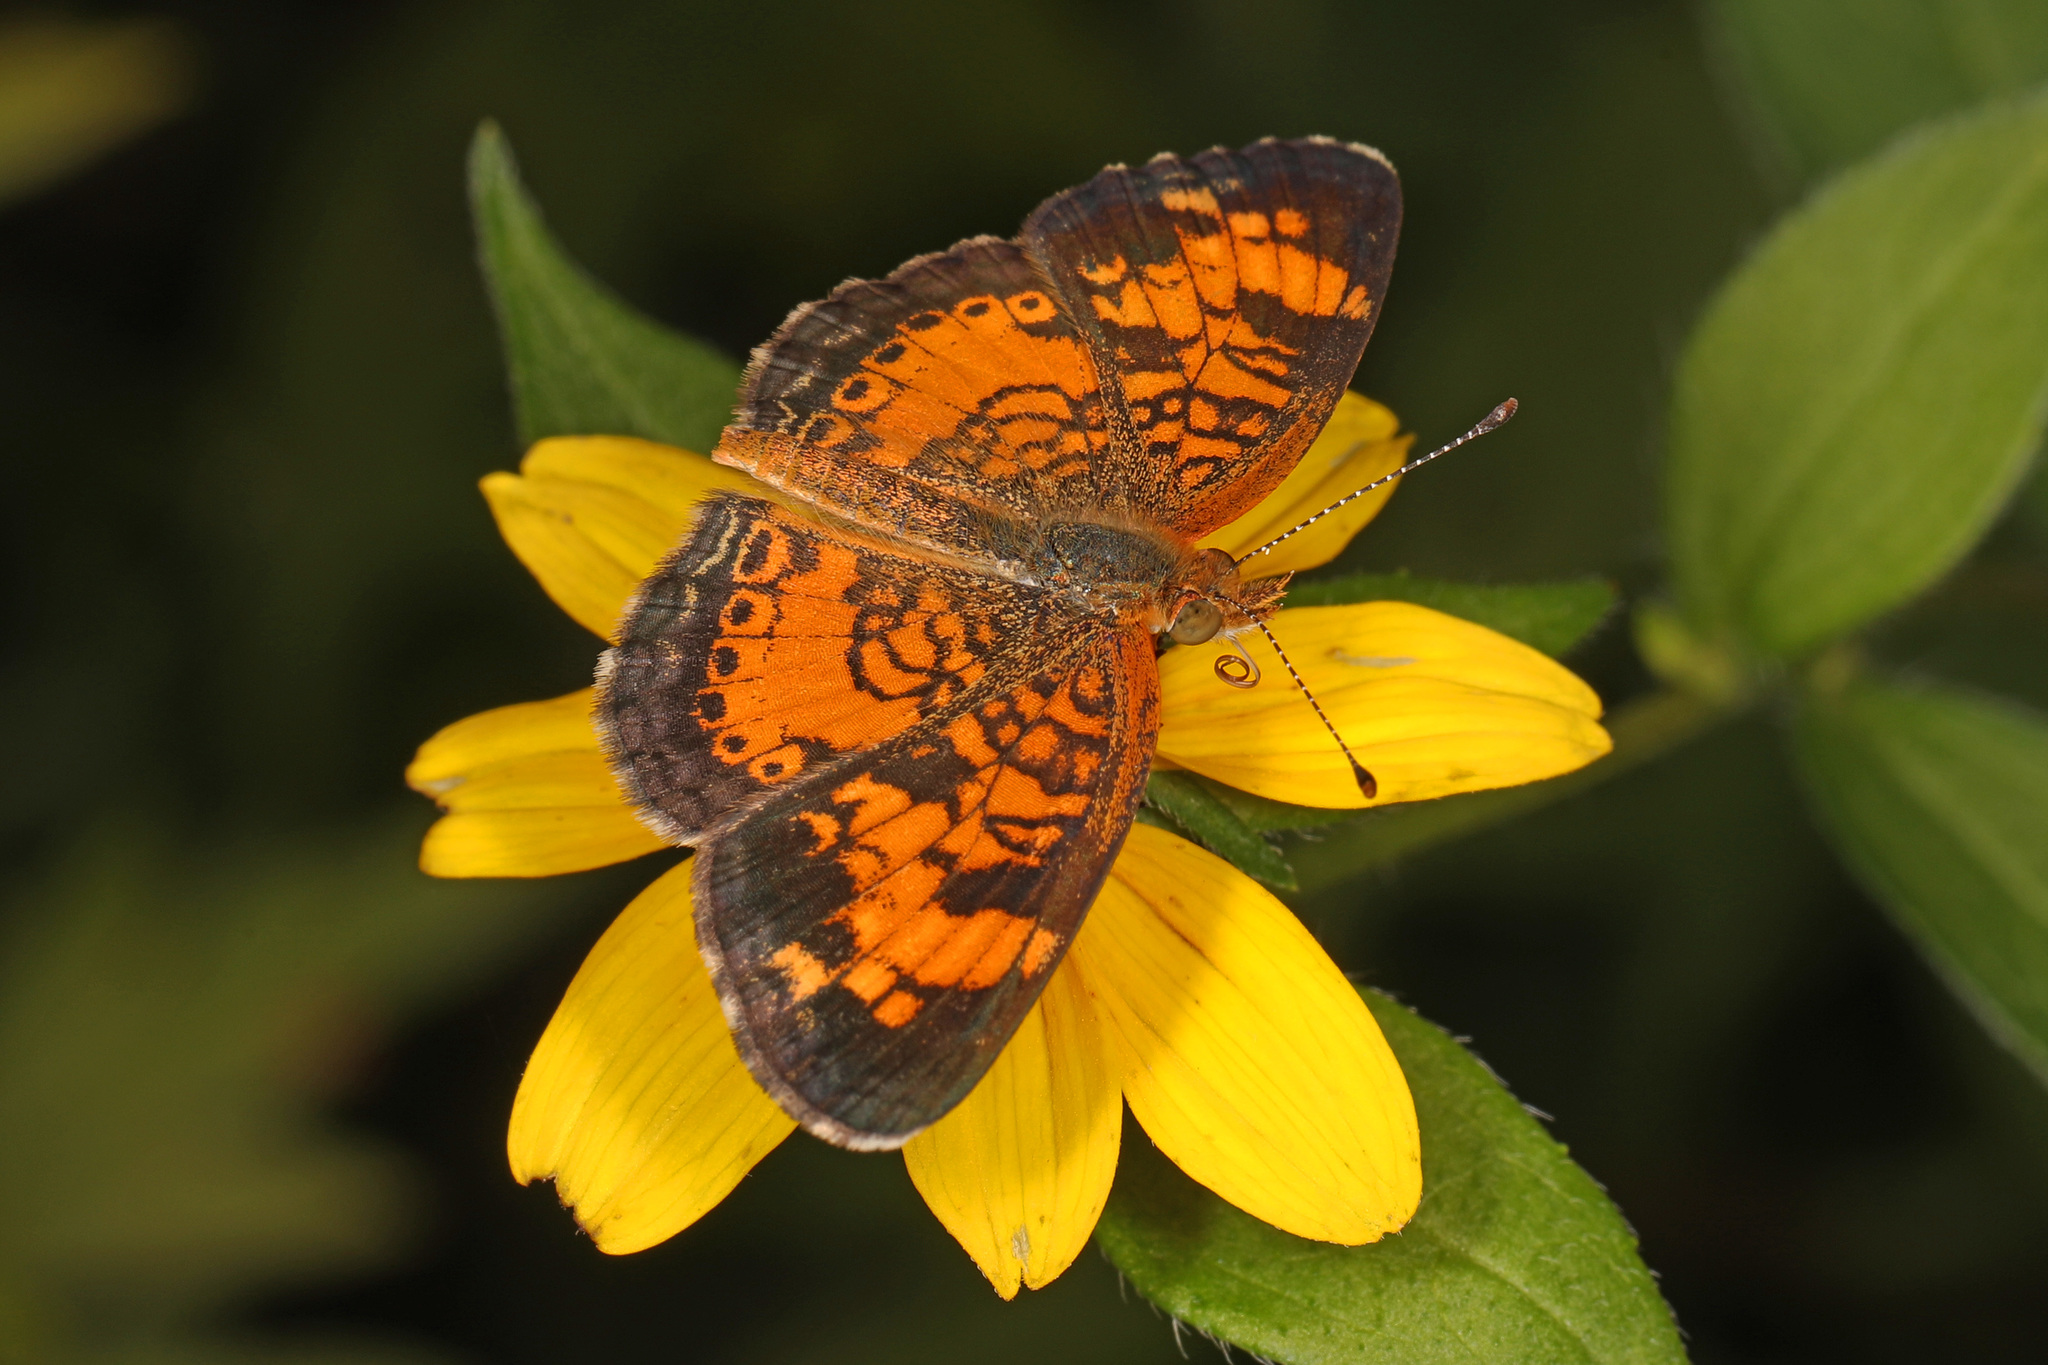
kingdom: Animalia
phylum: Arthropoda
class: Insecta
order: Lepidoptera
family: Nymphalidae
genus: Phyciodes
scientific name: Phyciodes tharos
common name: Pearl crescent
